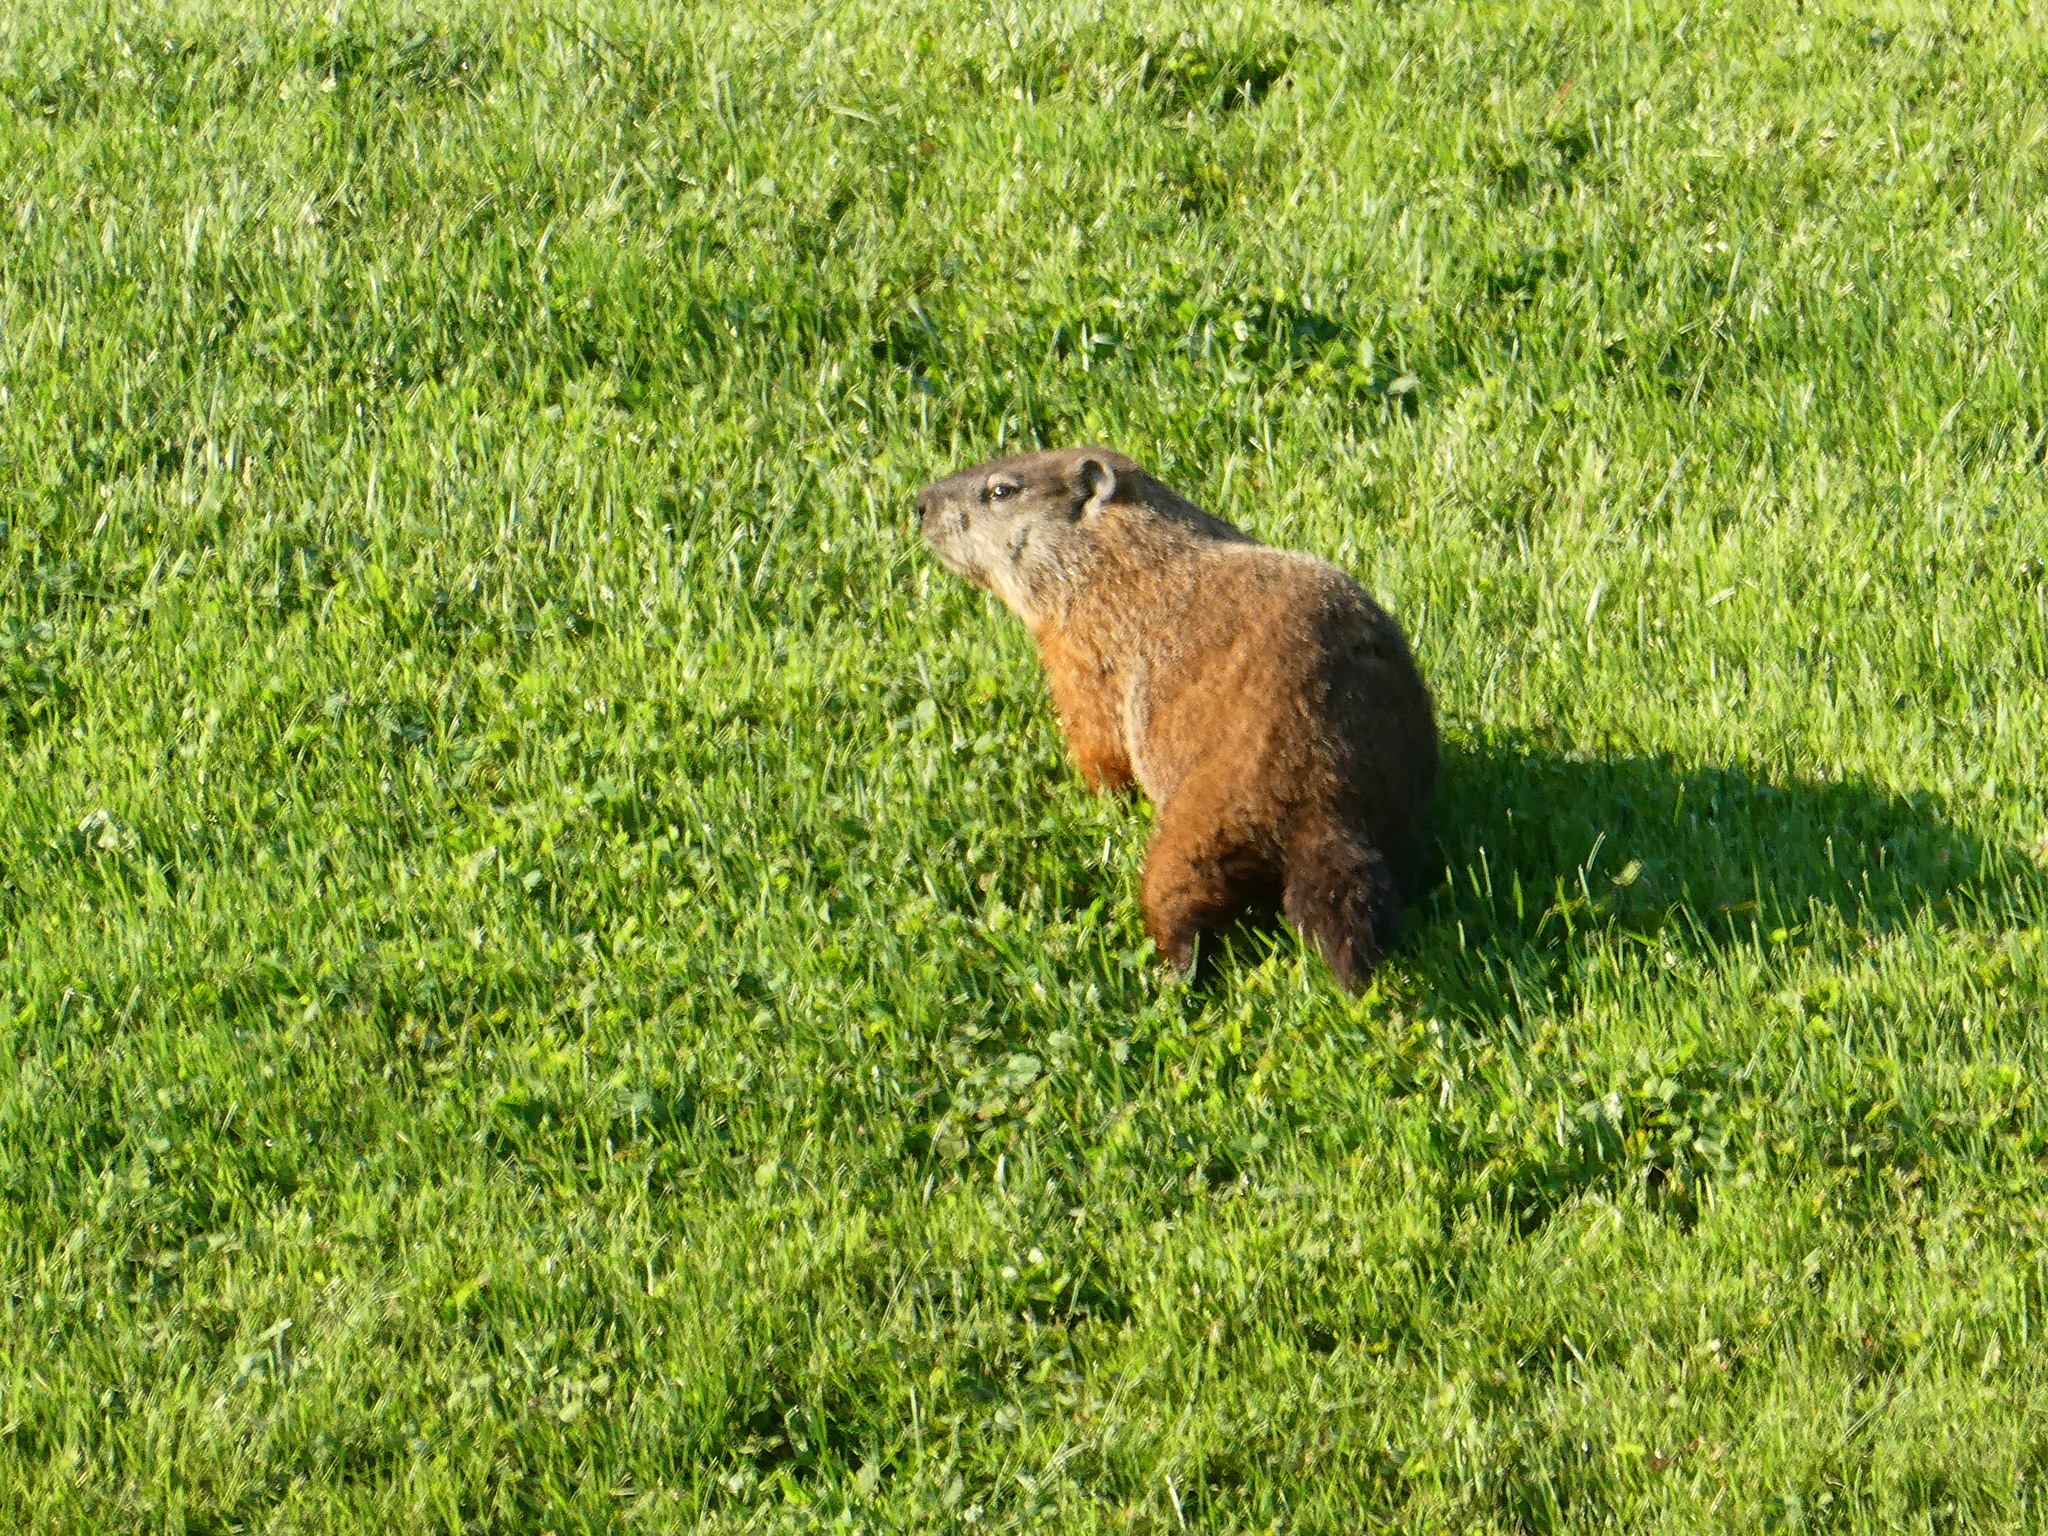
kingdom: Animalia
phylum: Chordata
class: Mammalia
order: Rodentia
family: Sciuridae
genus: Marmota
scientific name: Marmota monax
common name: Groundhog
